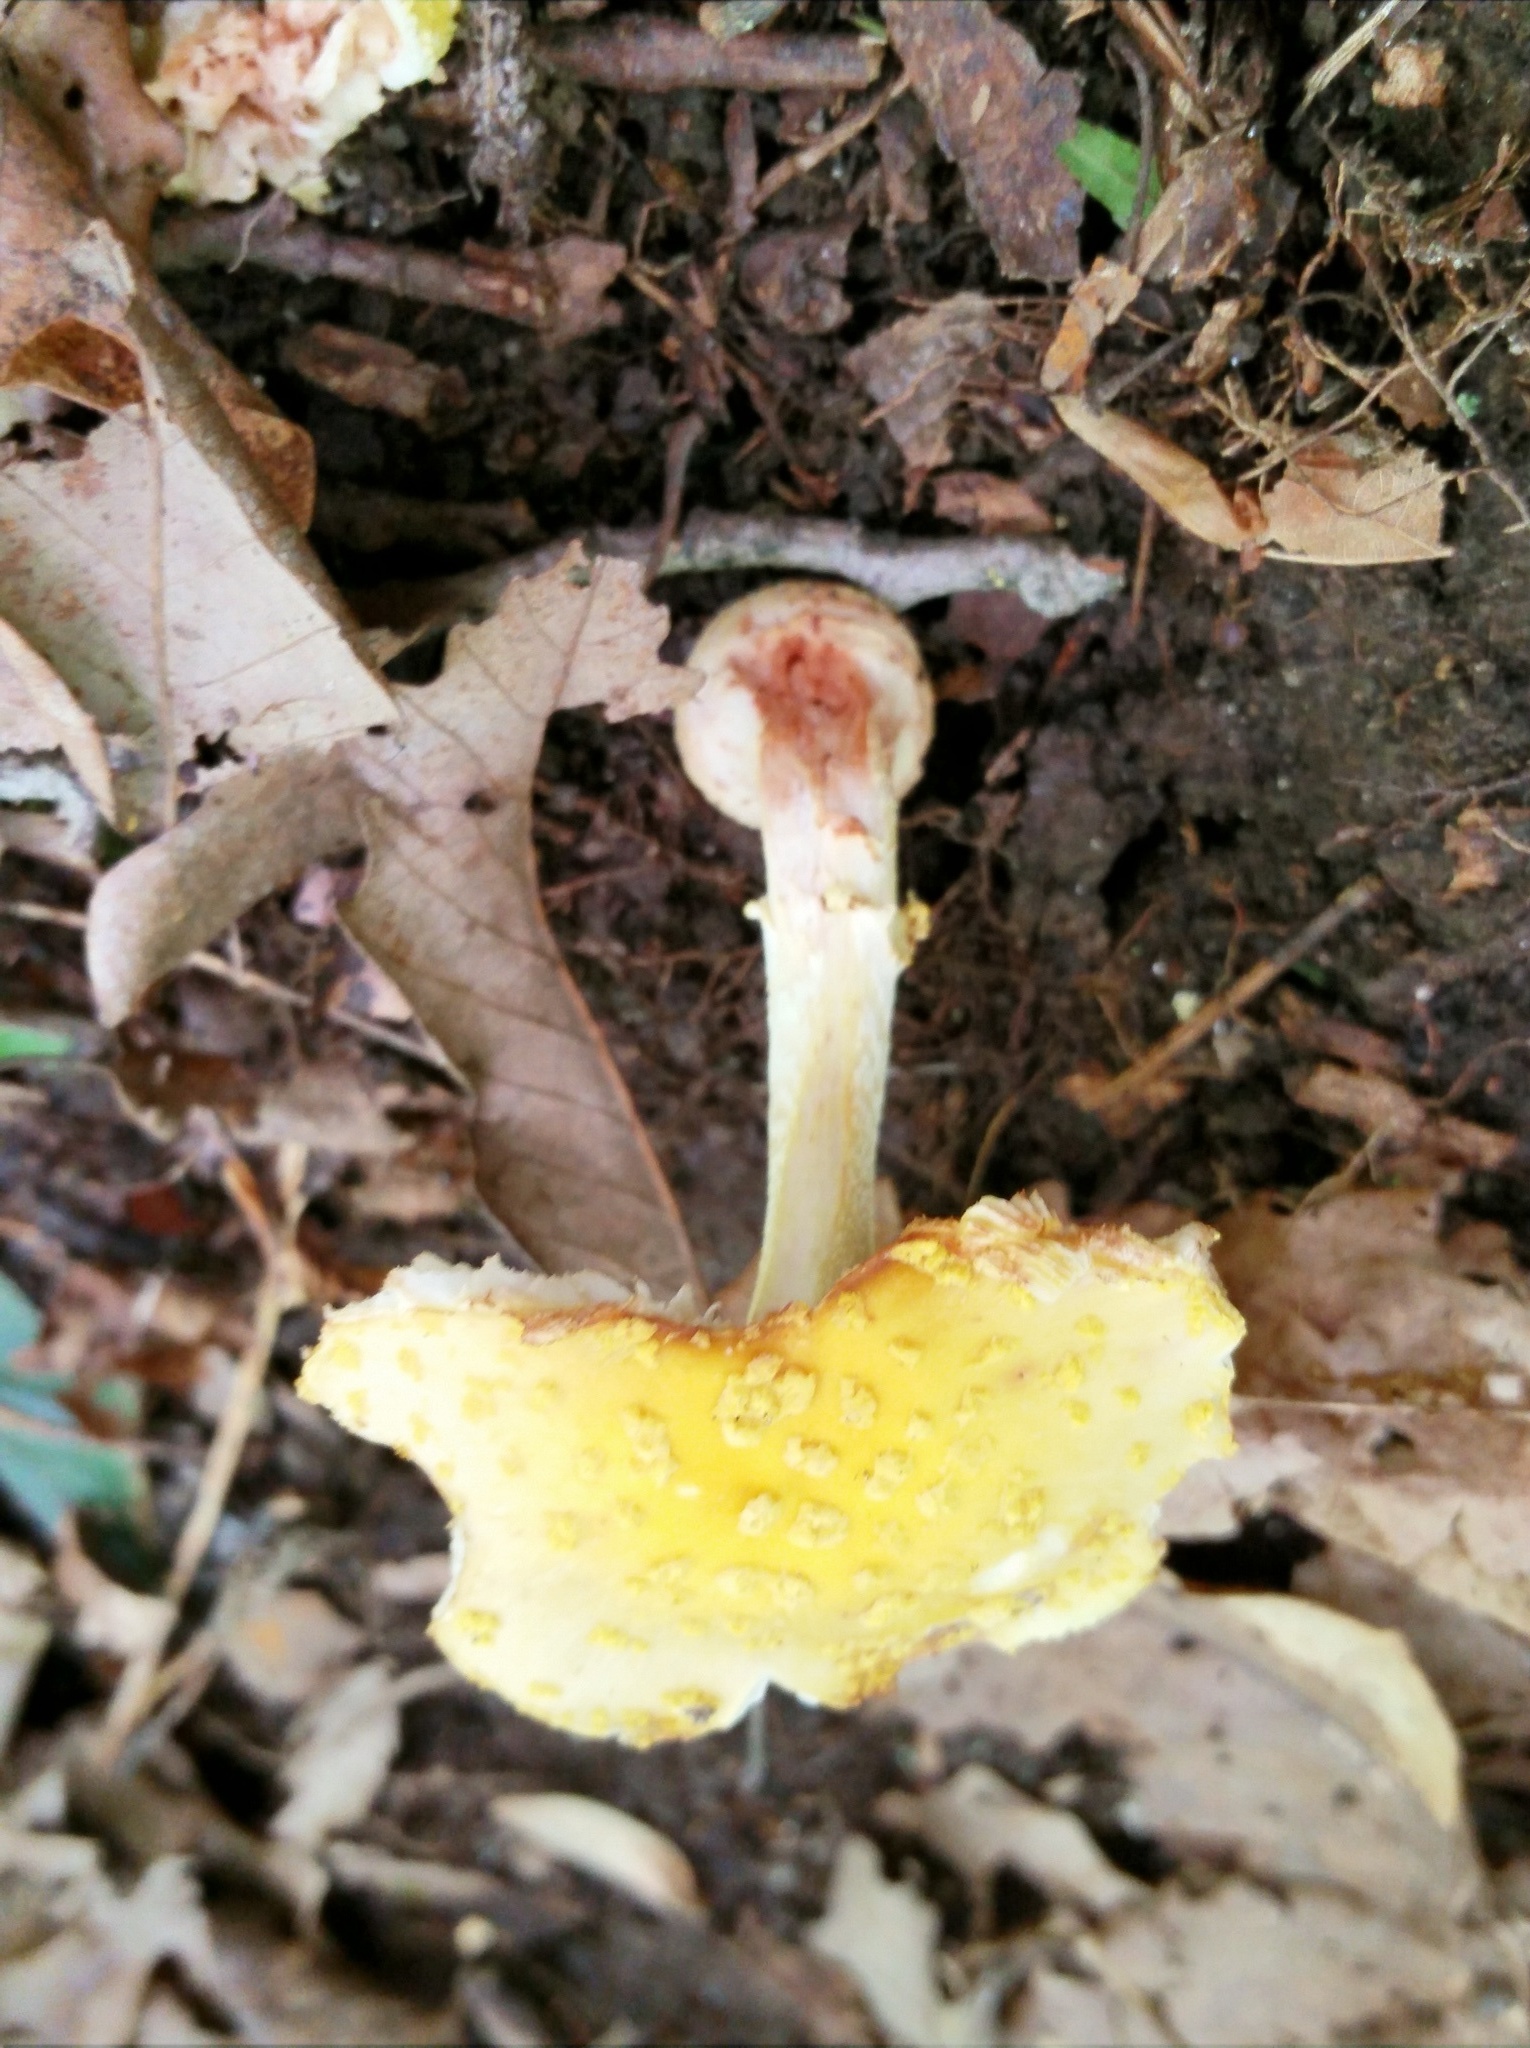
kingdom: Fungi
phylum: Basidiomycota
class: Agaricomycetes
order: Agaricales
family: Amanitaceae
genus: Amanita
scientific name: Amanita flavorubens
